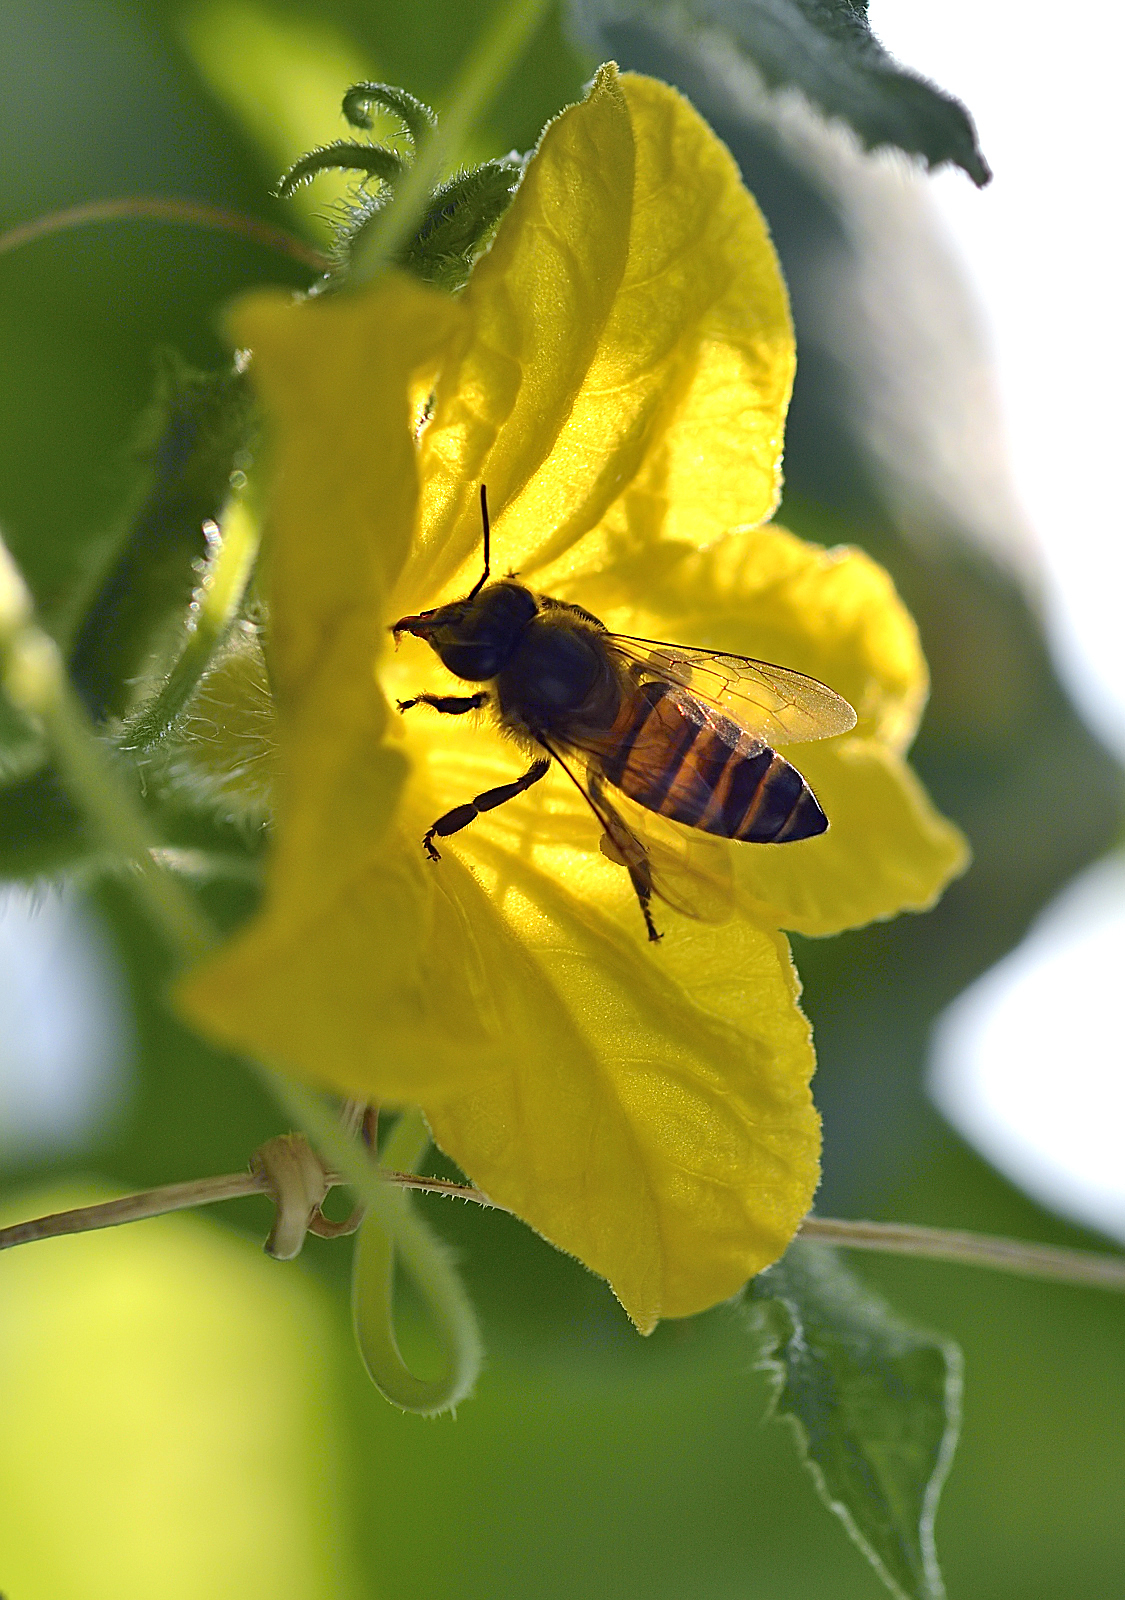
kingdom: Animalia
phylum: Arthropoda
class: Insecta
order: Hymenoptera
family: Apidae
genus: Apis
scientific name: Apis cerana
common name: Honey bee
